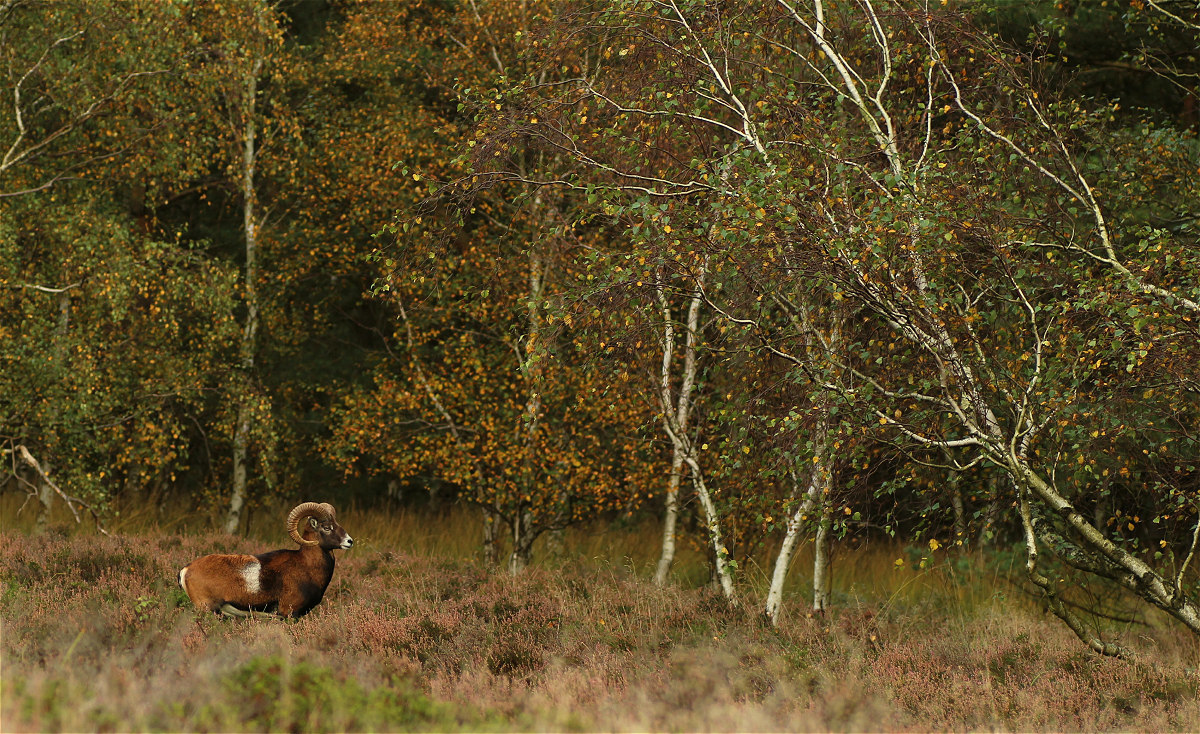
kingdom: Animalia
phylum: Chordata
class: Mammalia
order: Artiodactyla
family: Bovidae
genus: Ovis
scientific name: Ovis aries
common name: Domestic sheep
